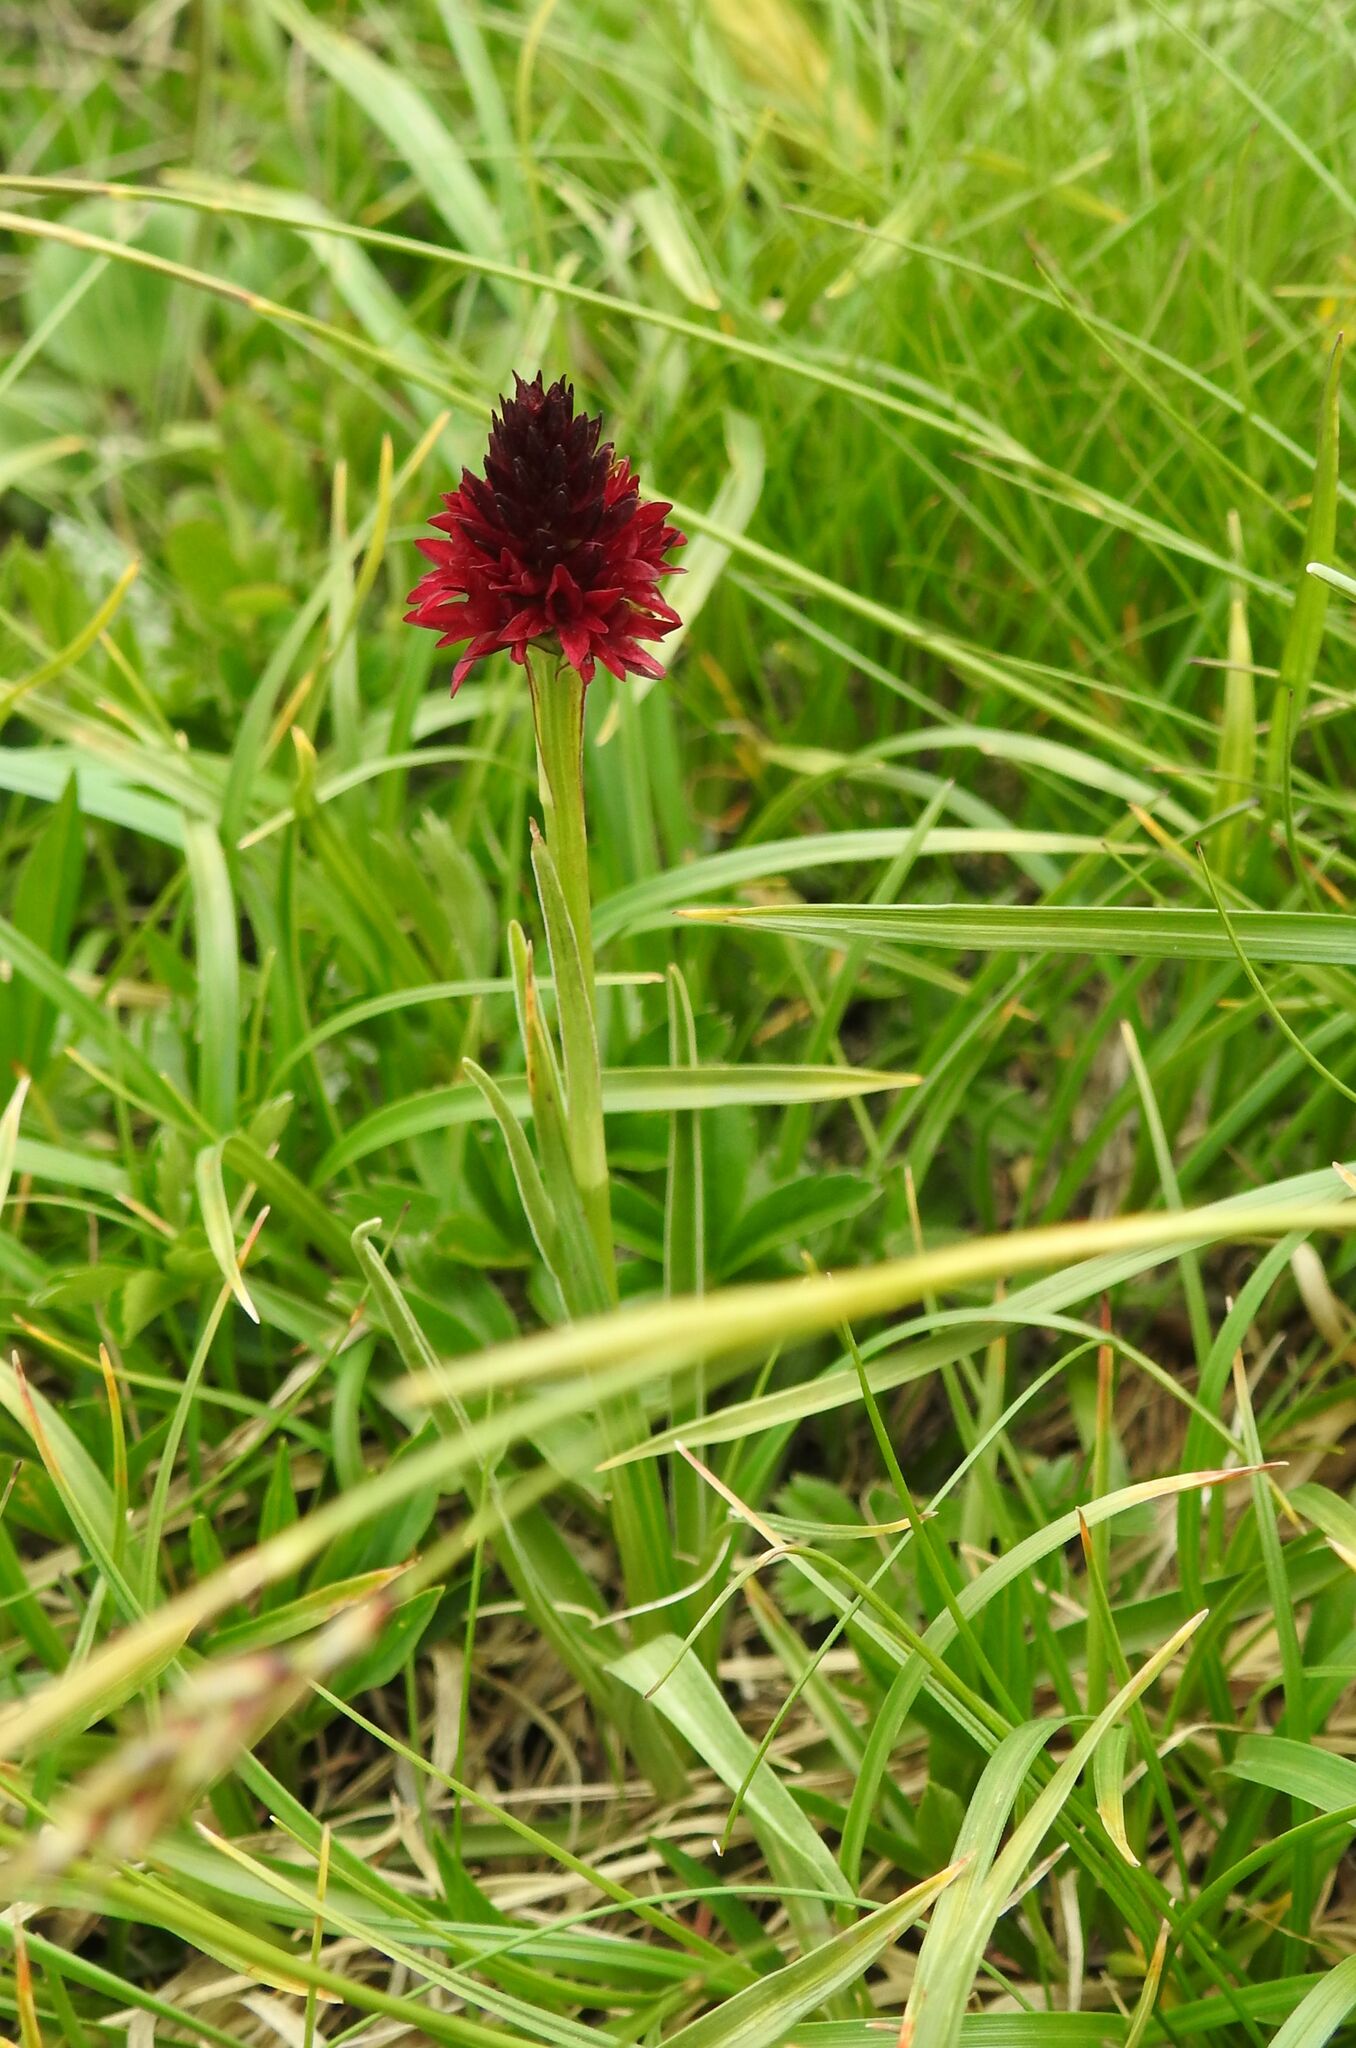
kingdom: Plantae
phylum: Tracheophyta
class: Liliopsida
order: Asparagales
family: Orchidaceae
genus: Gymnadenia
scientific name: Gymnadenia rhellicani
